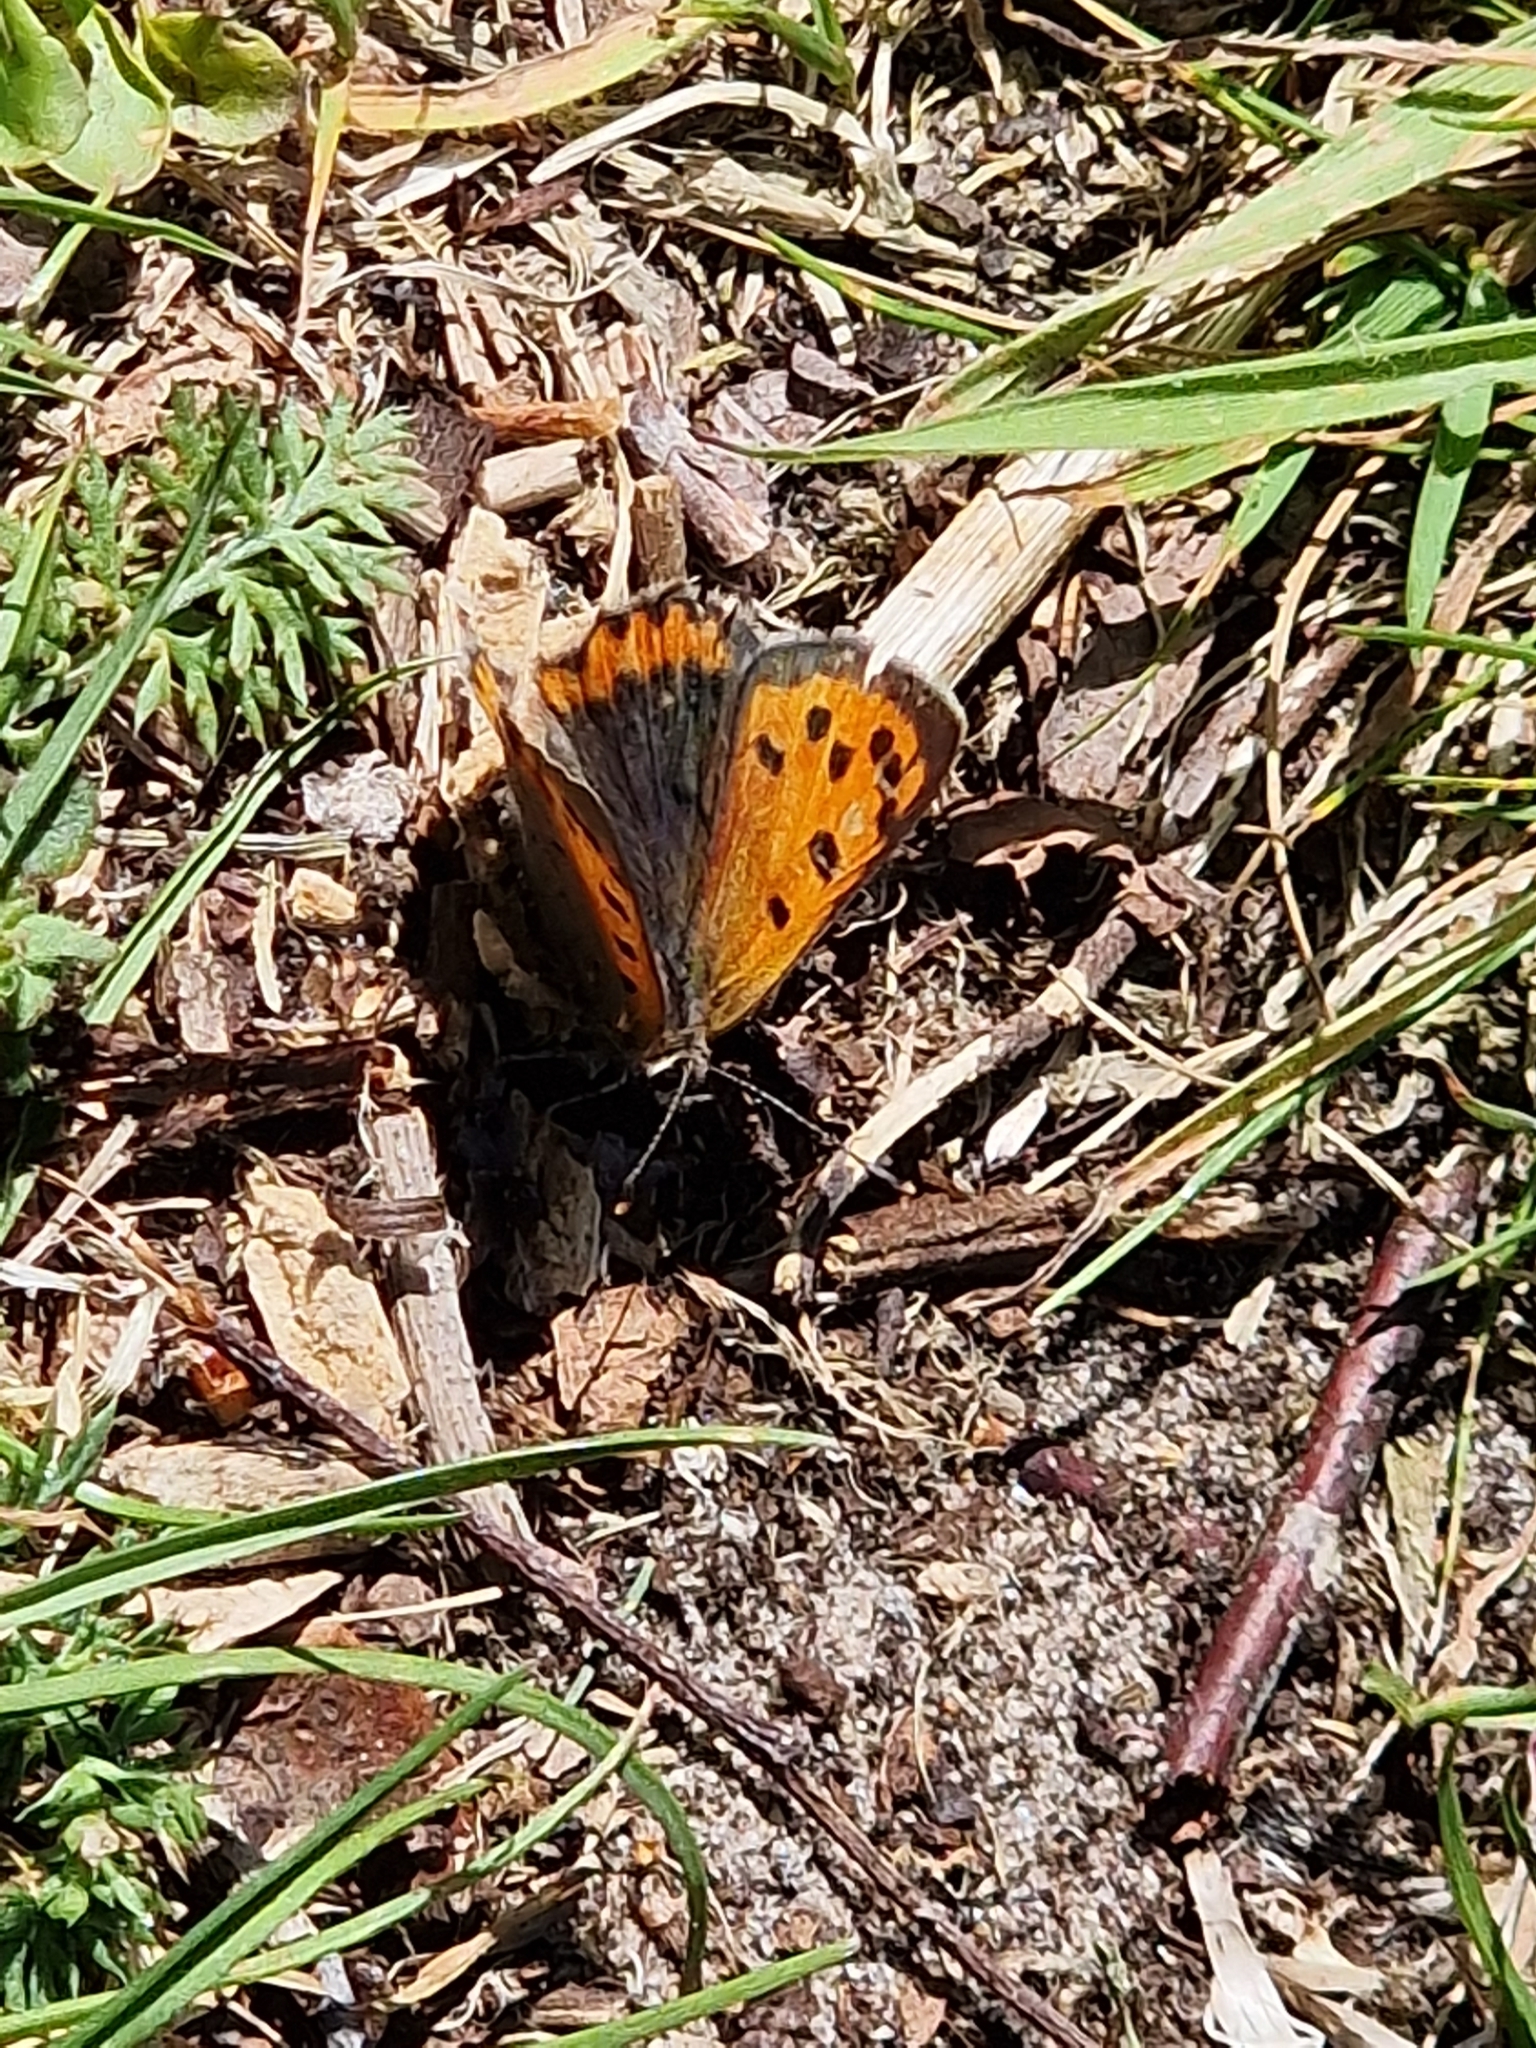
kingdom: Animalia
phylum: Arthropoda
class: Insecta
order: Lepidoptera
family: Lycaenidae
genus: Lycaena
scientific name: Lycaena phlaeas
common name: Small copper
